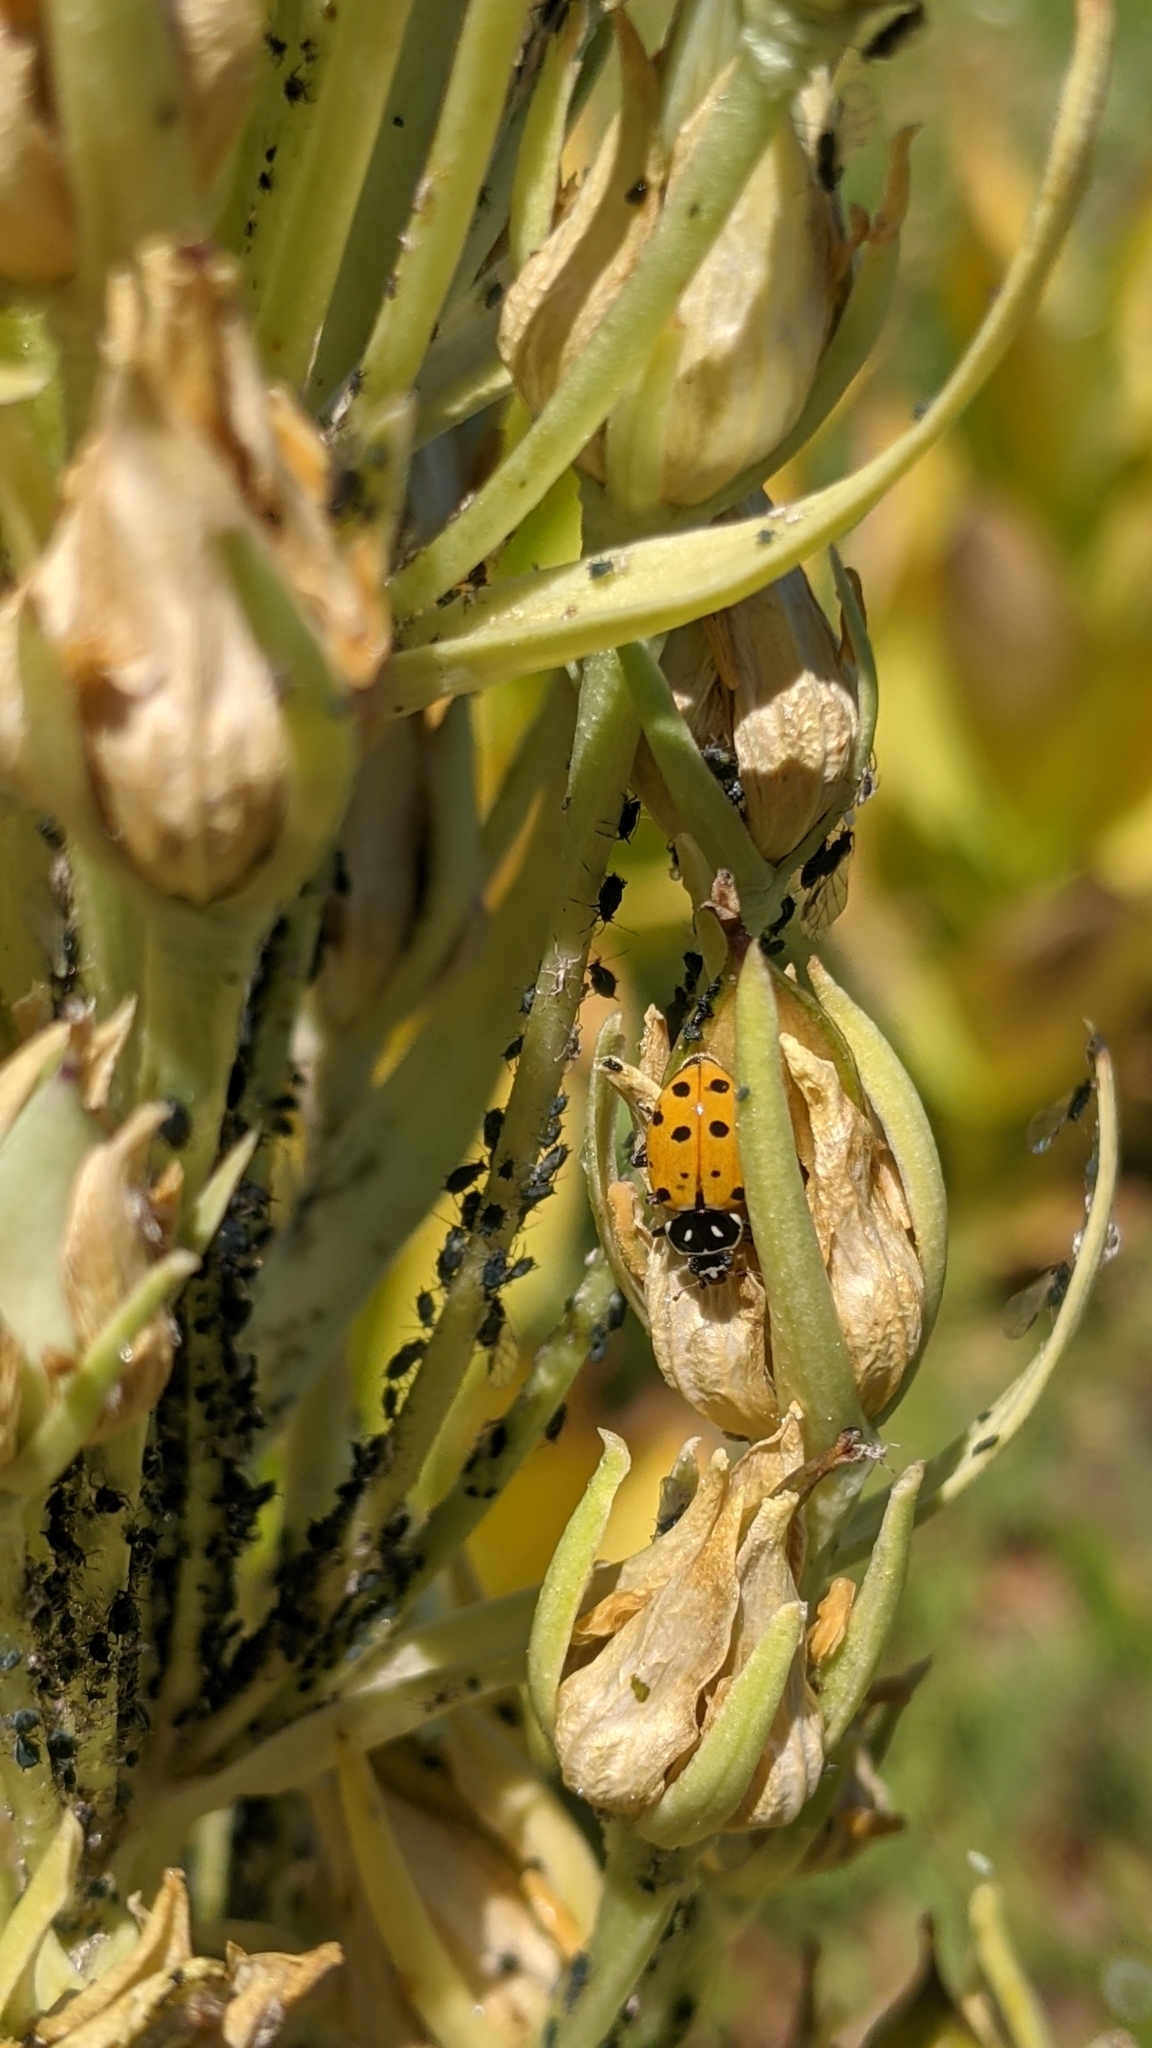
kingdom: Animalia
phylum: Arthropoda
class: Insecta
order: Coleoptera
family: Coccinellidae
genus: Hippodamia
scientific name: Hippodamia convergens
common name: Convergent lady beetle
